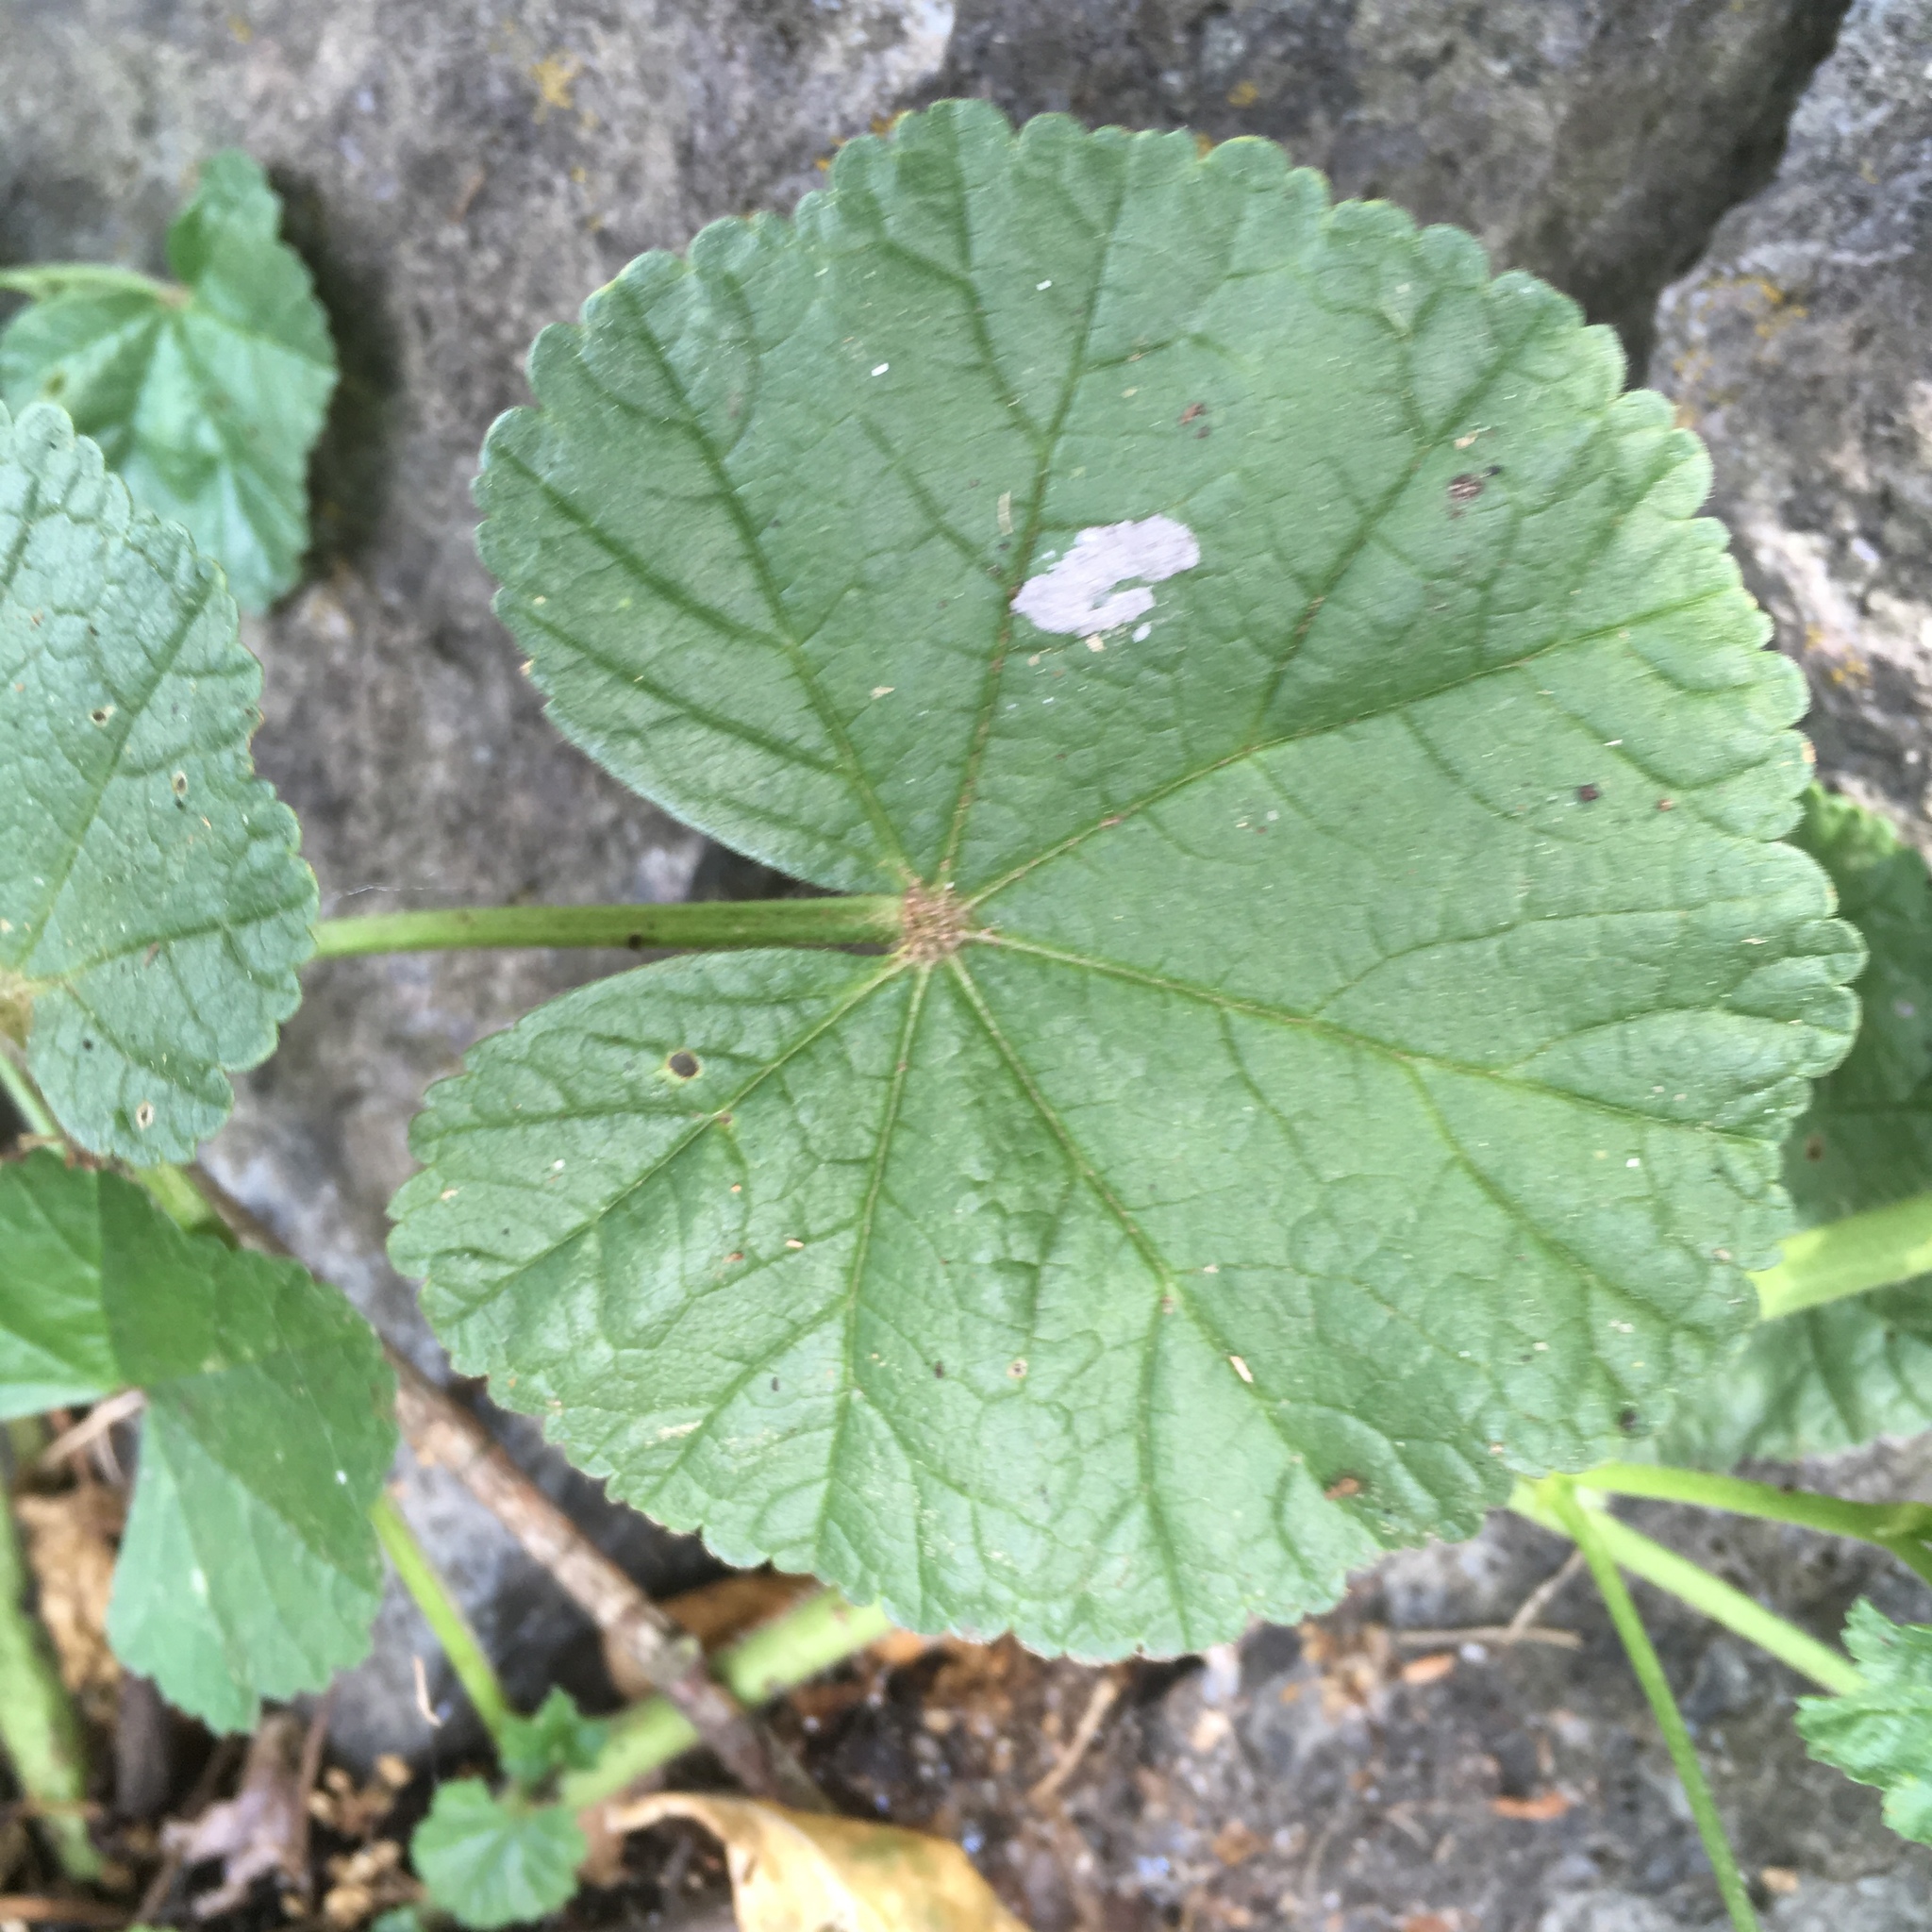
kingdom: Plantae
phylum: Tracheophyta
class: Magnoliopsida
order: Malvales
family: Malvaceae
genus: Malva
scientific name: Malva sylvestris
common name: Common mallow
